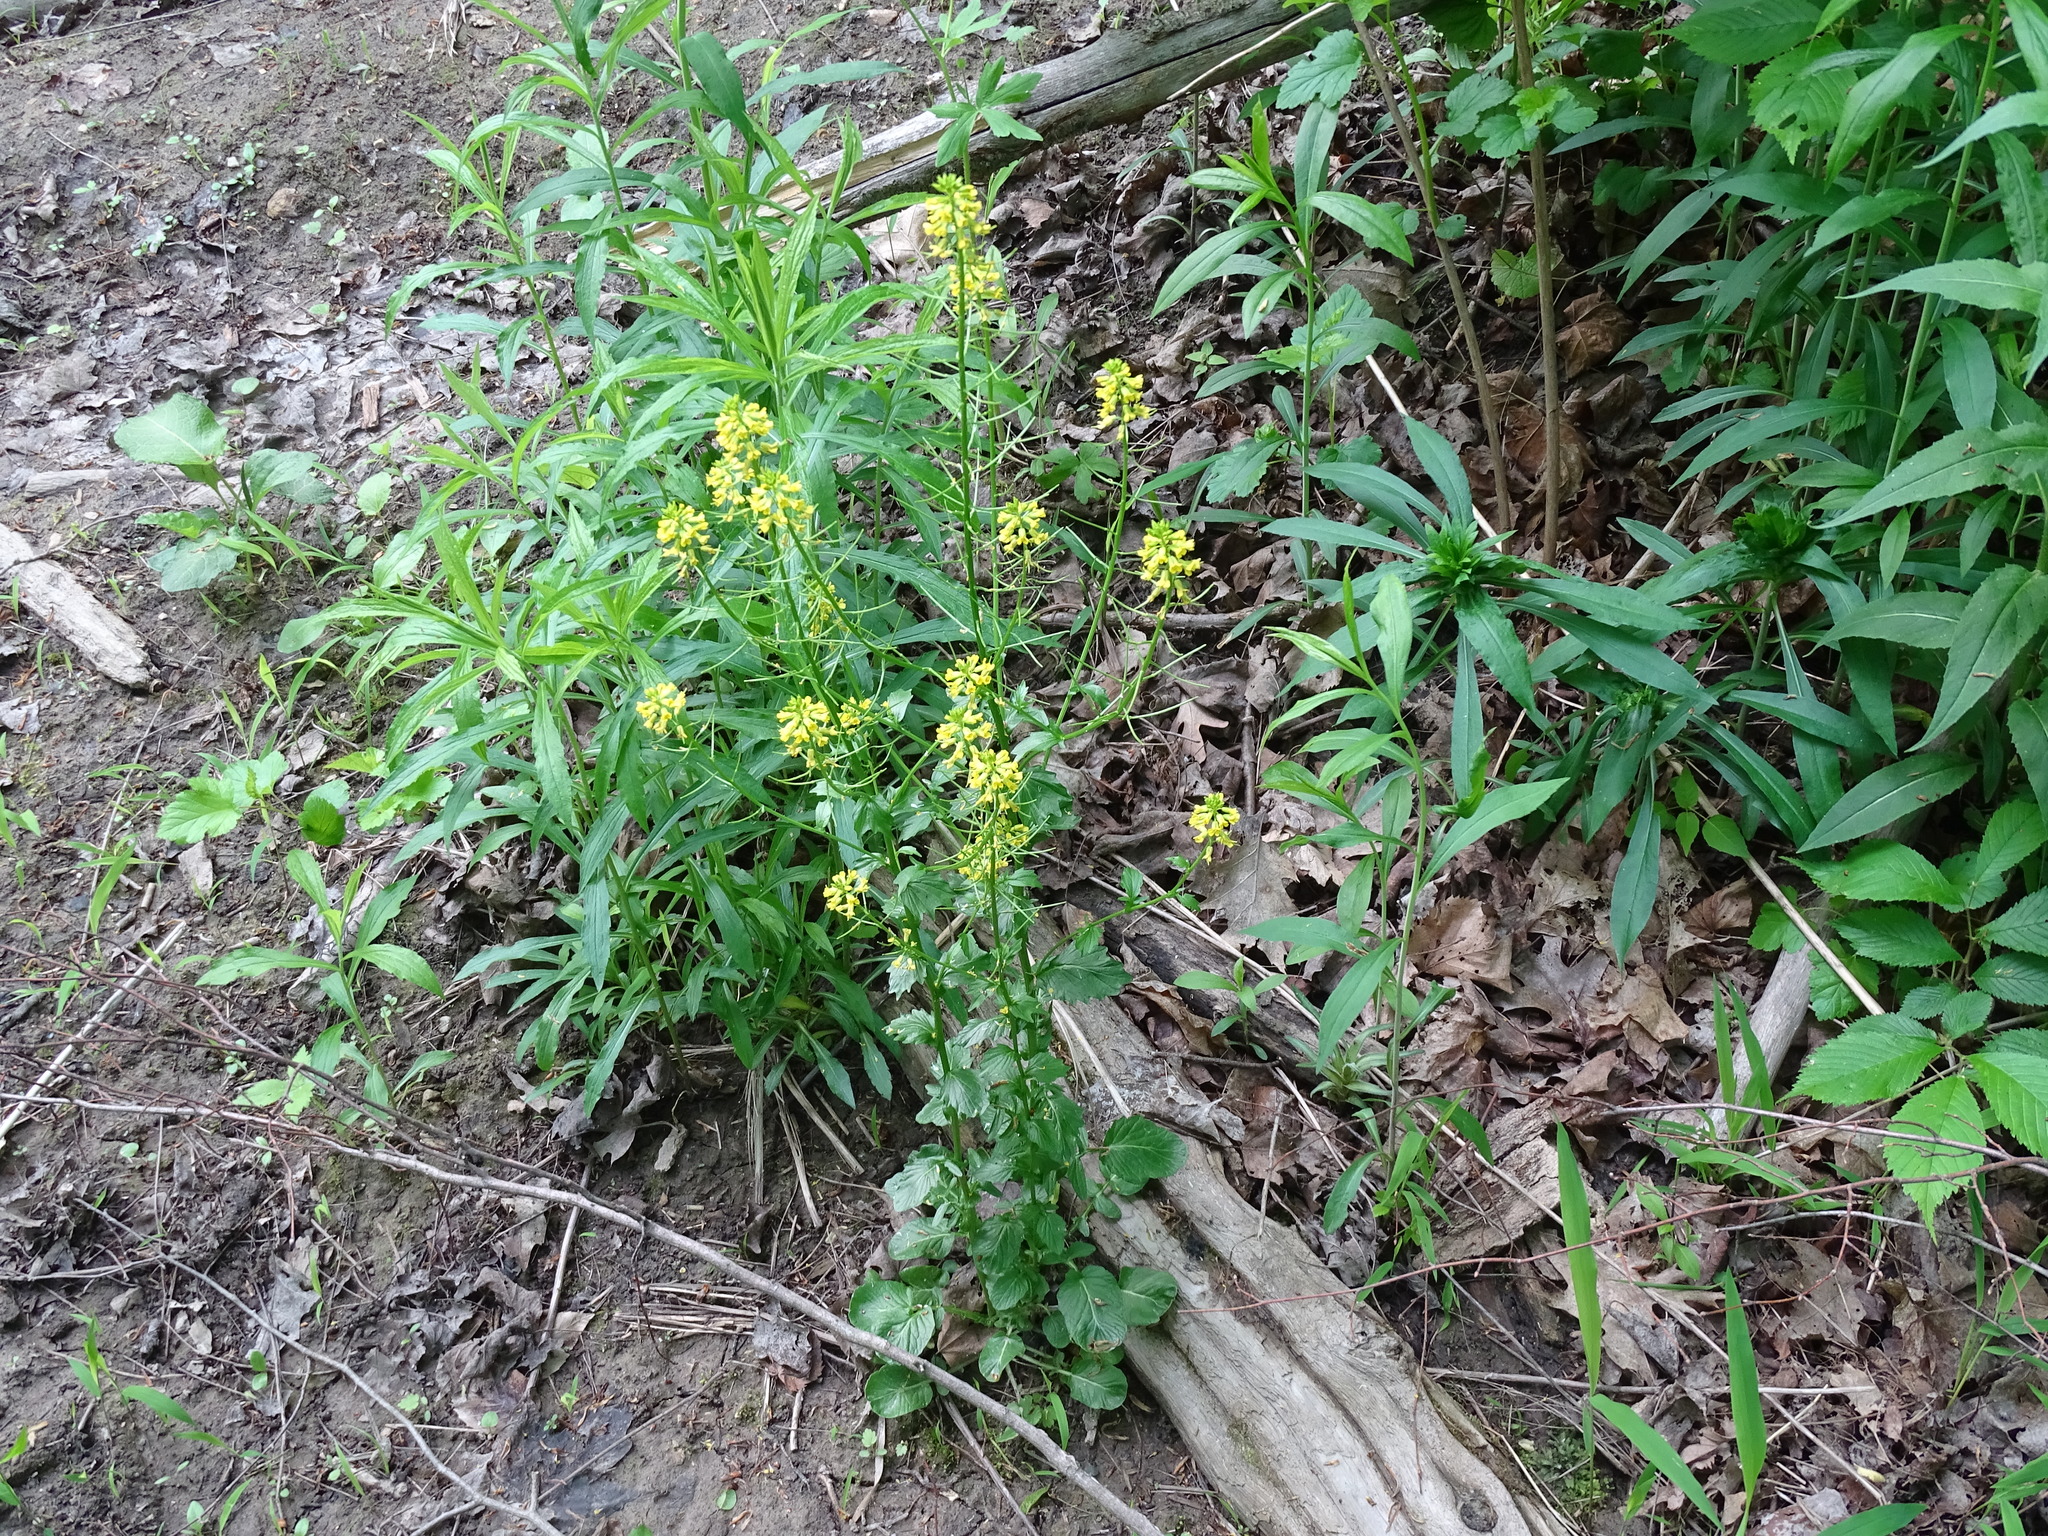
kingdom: Plantae
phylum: Tracheophyta
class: Magnoliopsida
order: Brassicales
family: Brassicaceae
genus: Barbarea
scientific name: Barbarea vulgaris
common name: Cressy-greens
